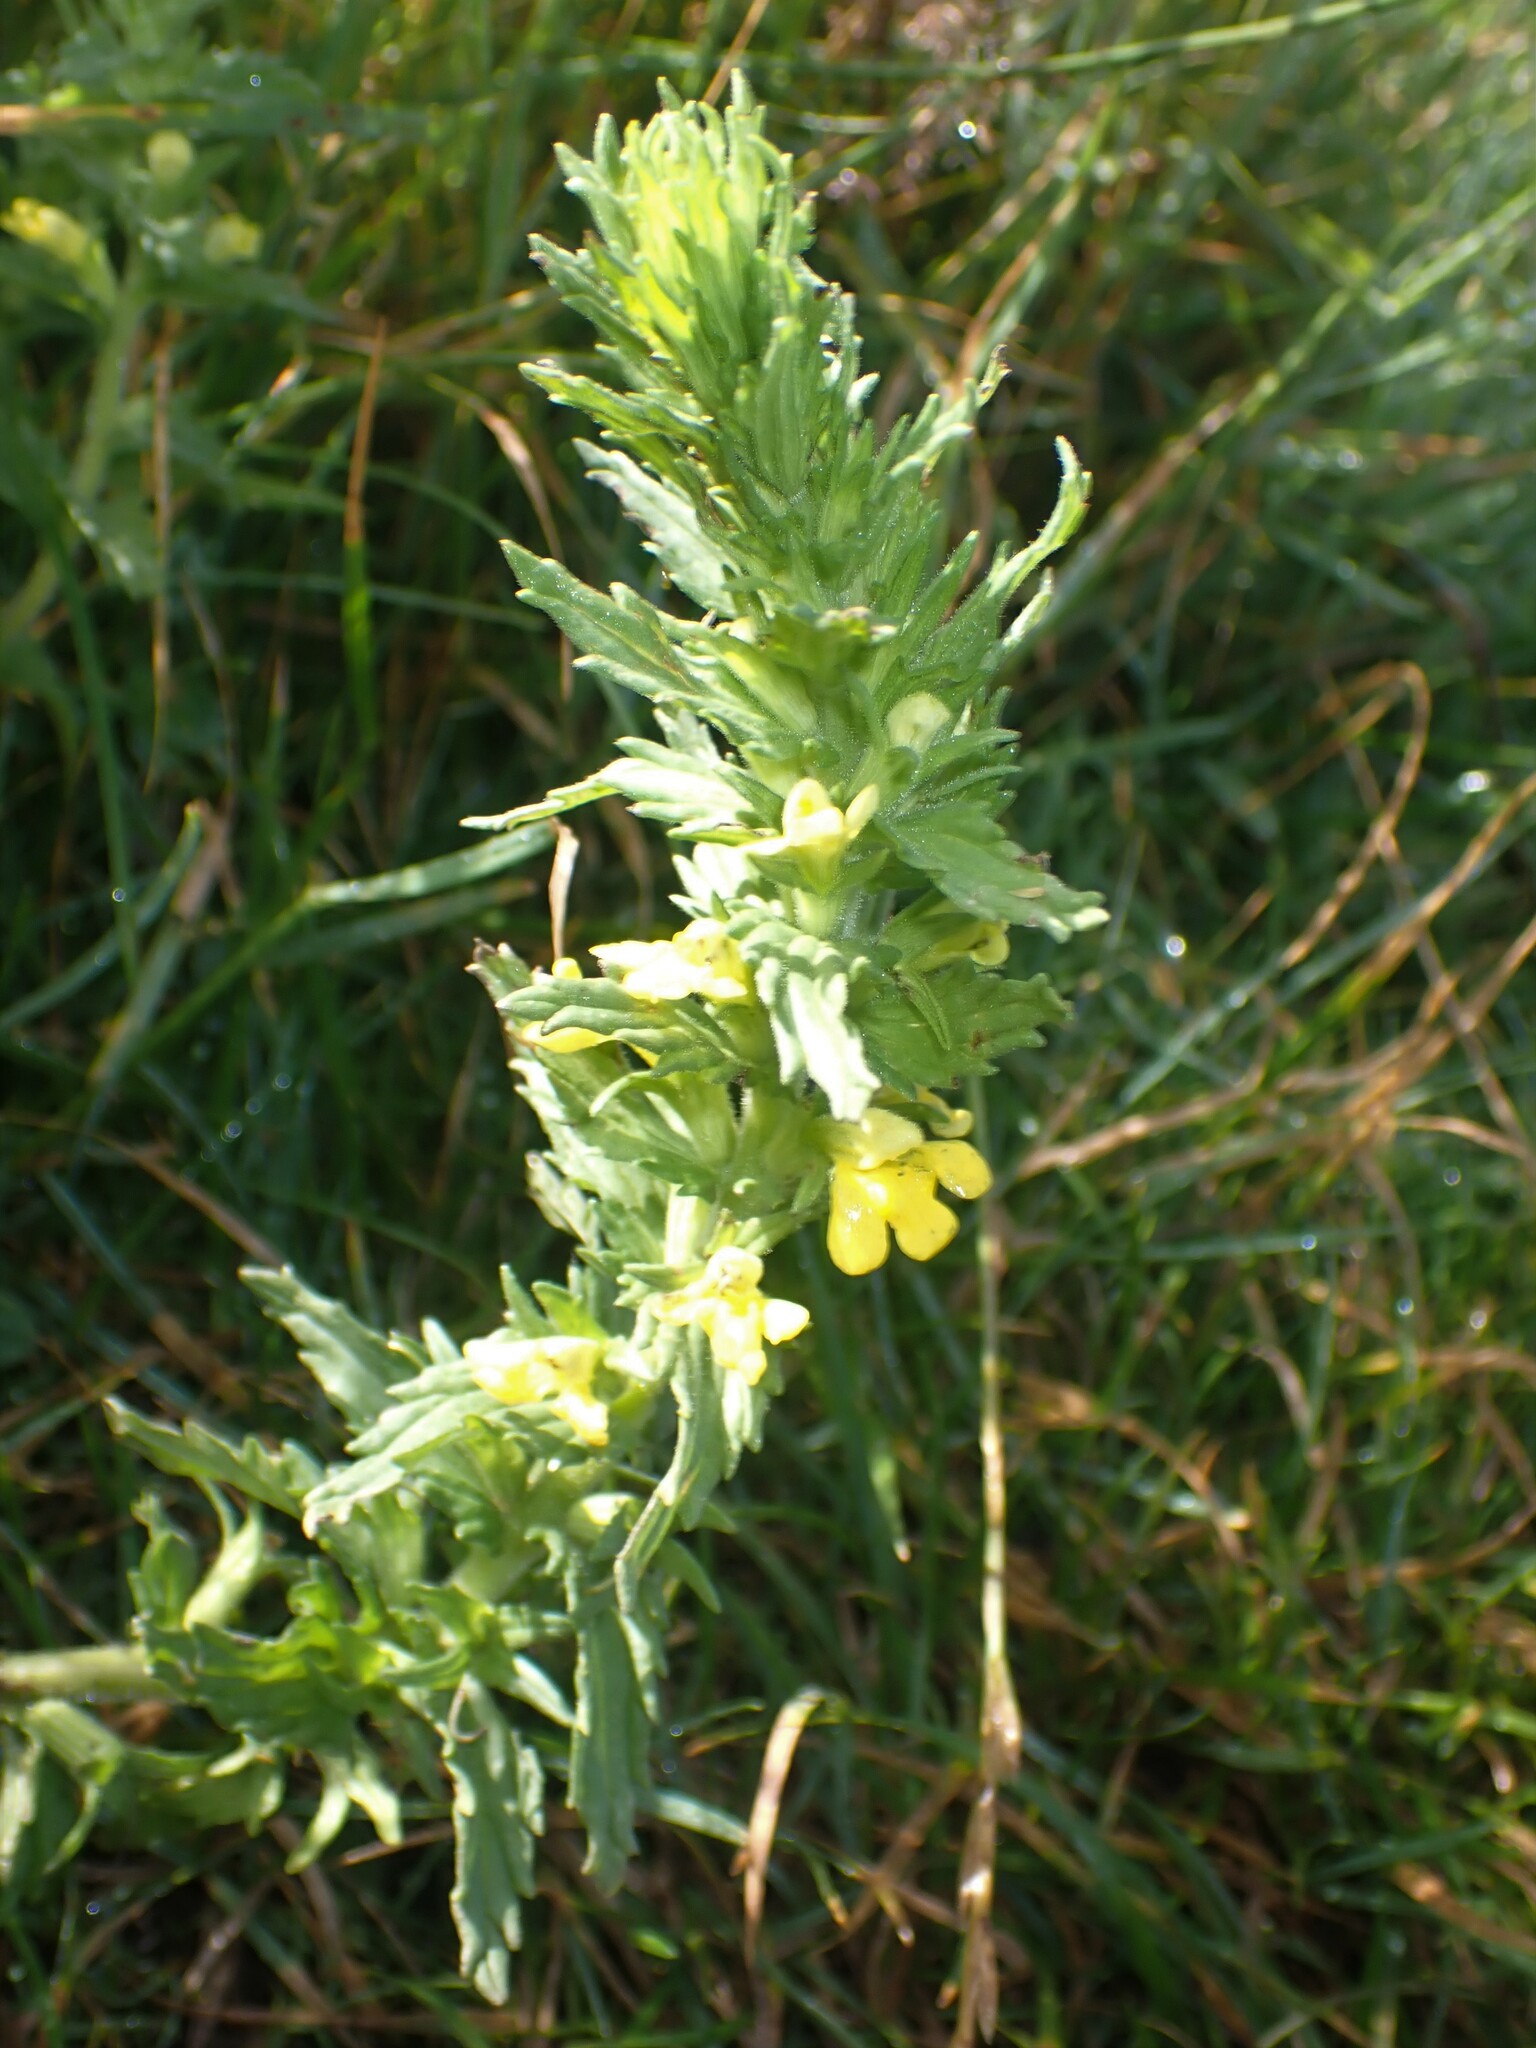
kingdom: Plantae
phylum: Tracheophyta
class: Magnoliopsida
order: Lamiales
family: Orobanchaceae
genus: Bellardia
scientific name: Bellardia viscosa
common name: Sticky parentucellia
